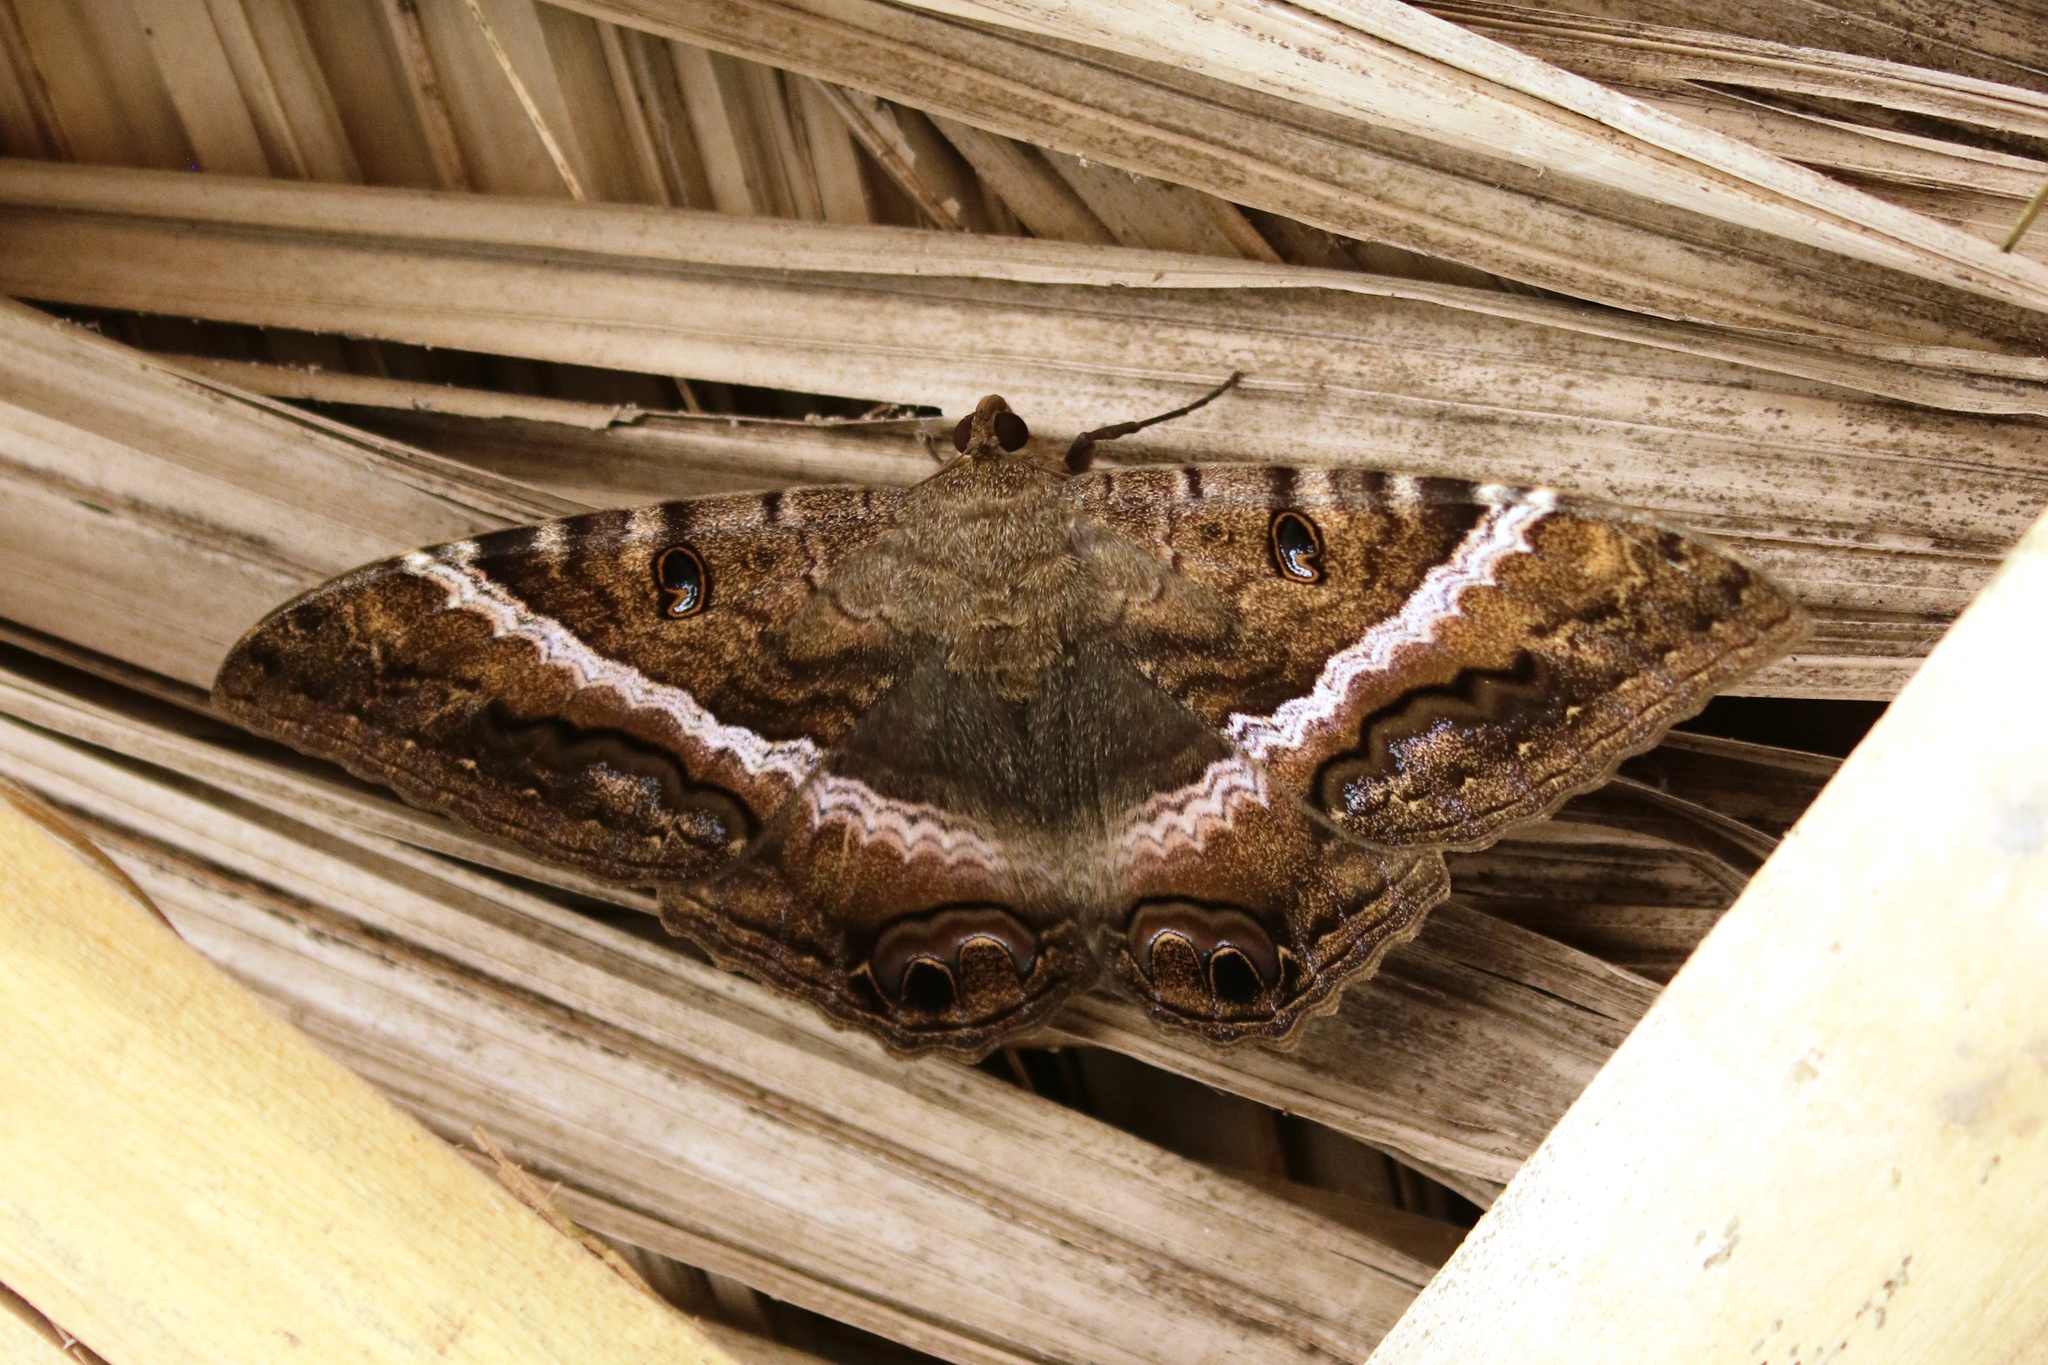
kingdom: Animalia
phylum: Arthropoda
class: Insecta
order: Lepidoptera
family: Erebidae
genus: Ascalapha
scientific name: Ascalapha odorata
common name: Black witch
